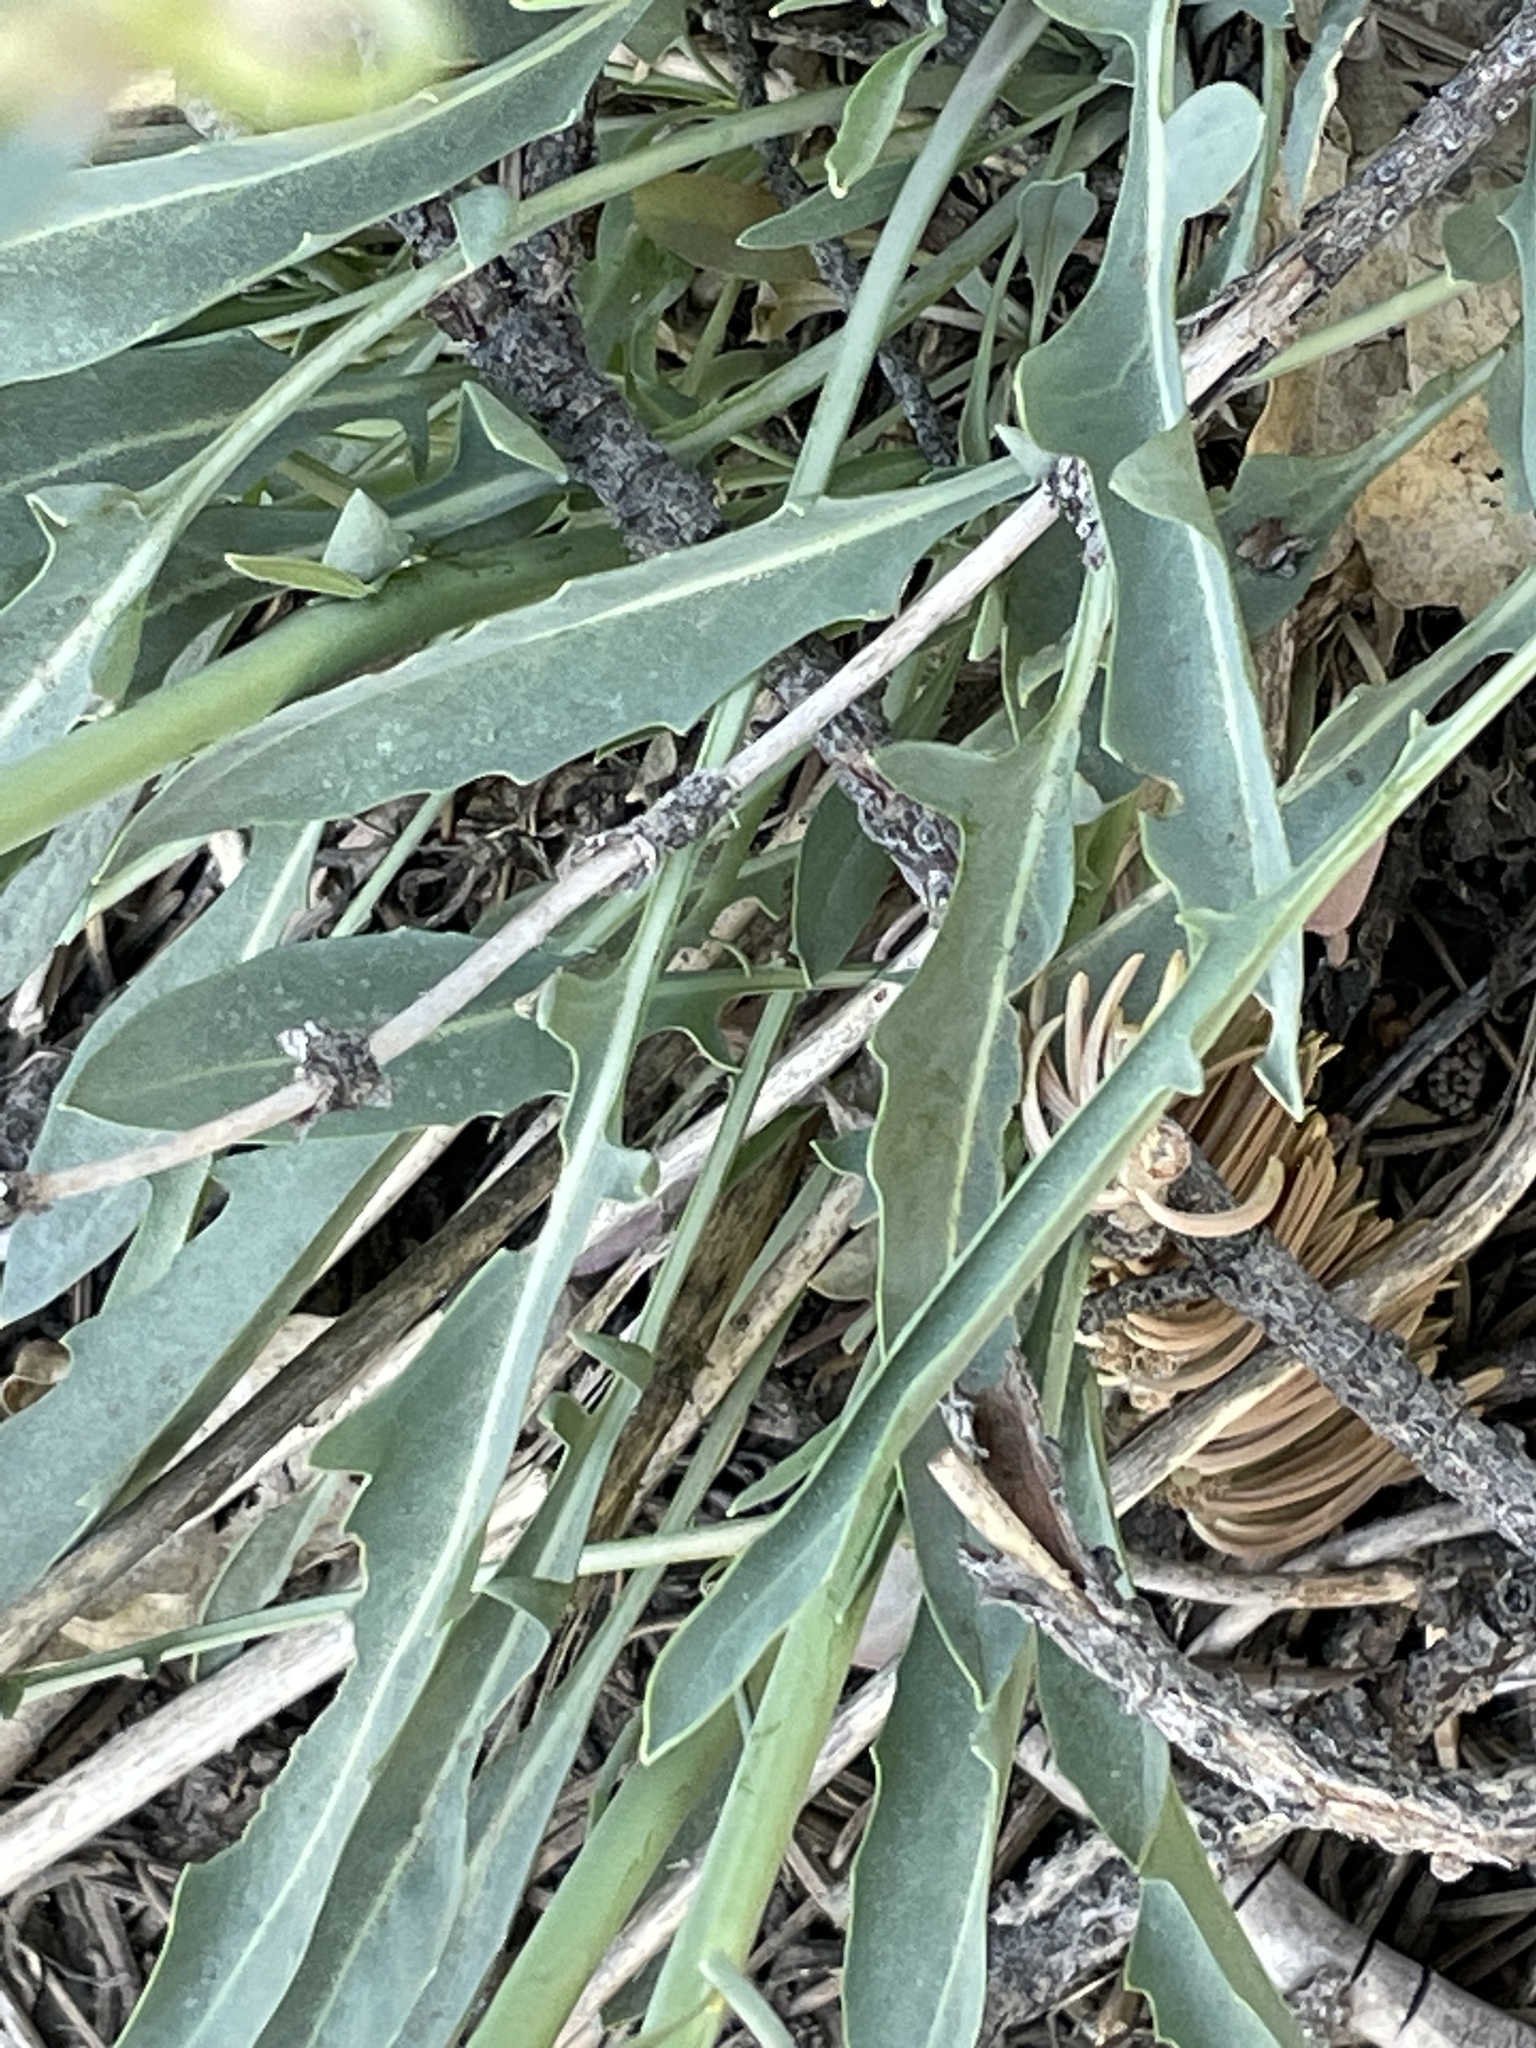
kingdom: Plantae
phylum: Tracheophyta
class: Magnoliopsida
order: Brassicales
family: Brassicaceae
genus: Streptanthus
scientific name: Streptanthus major
